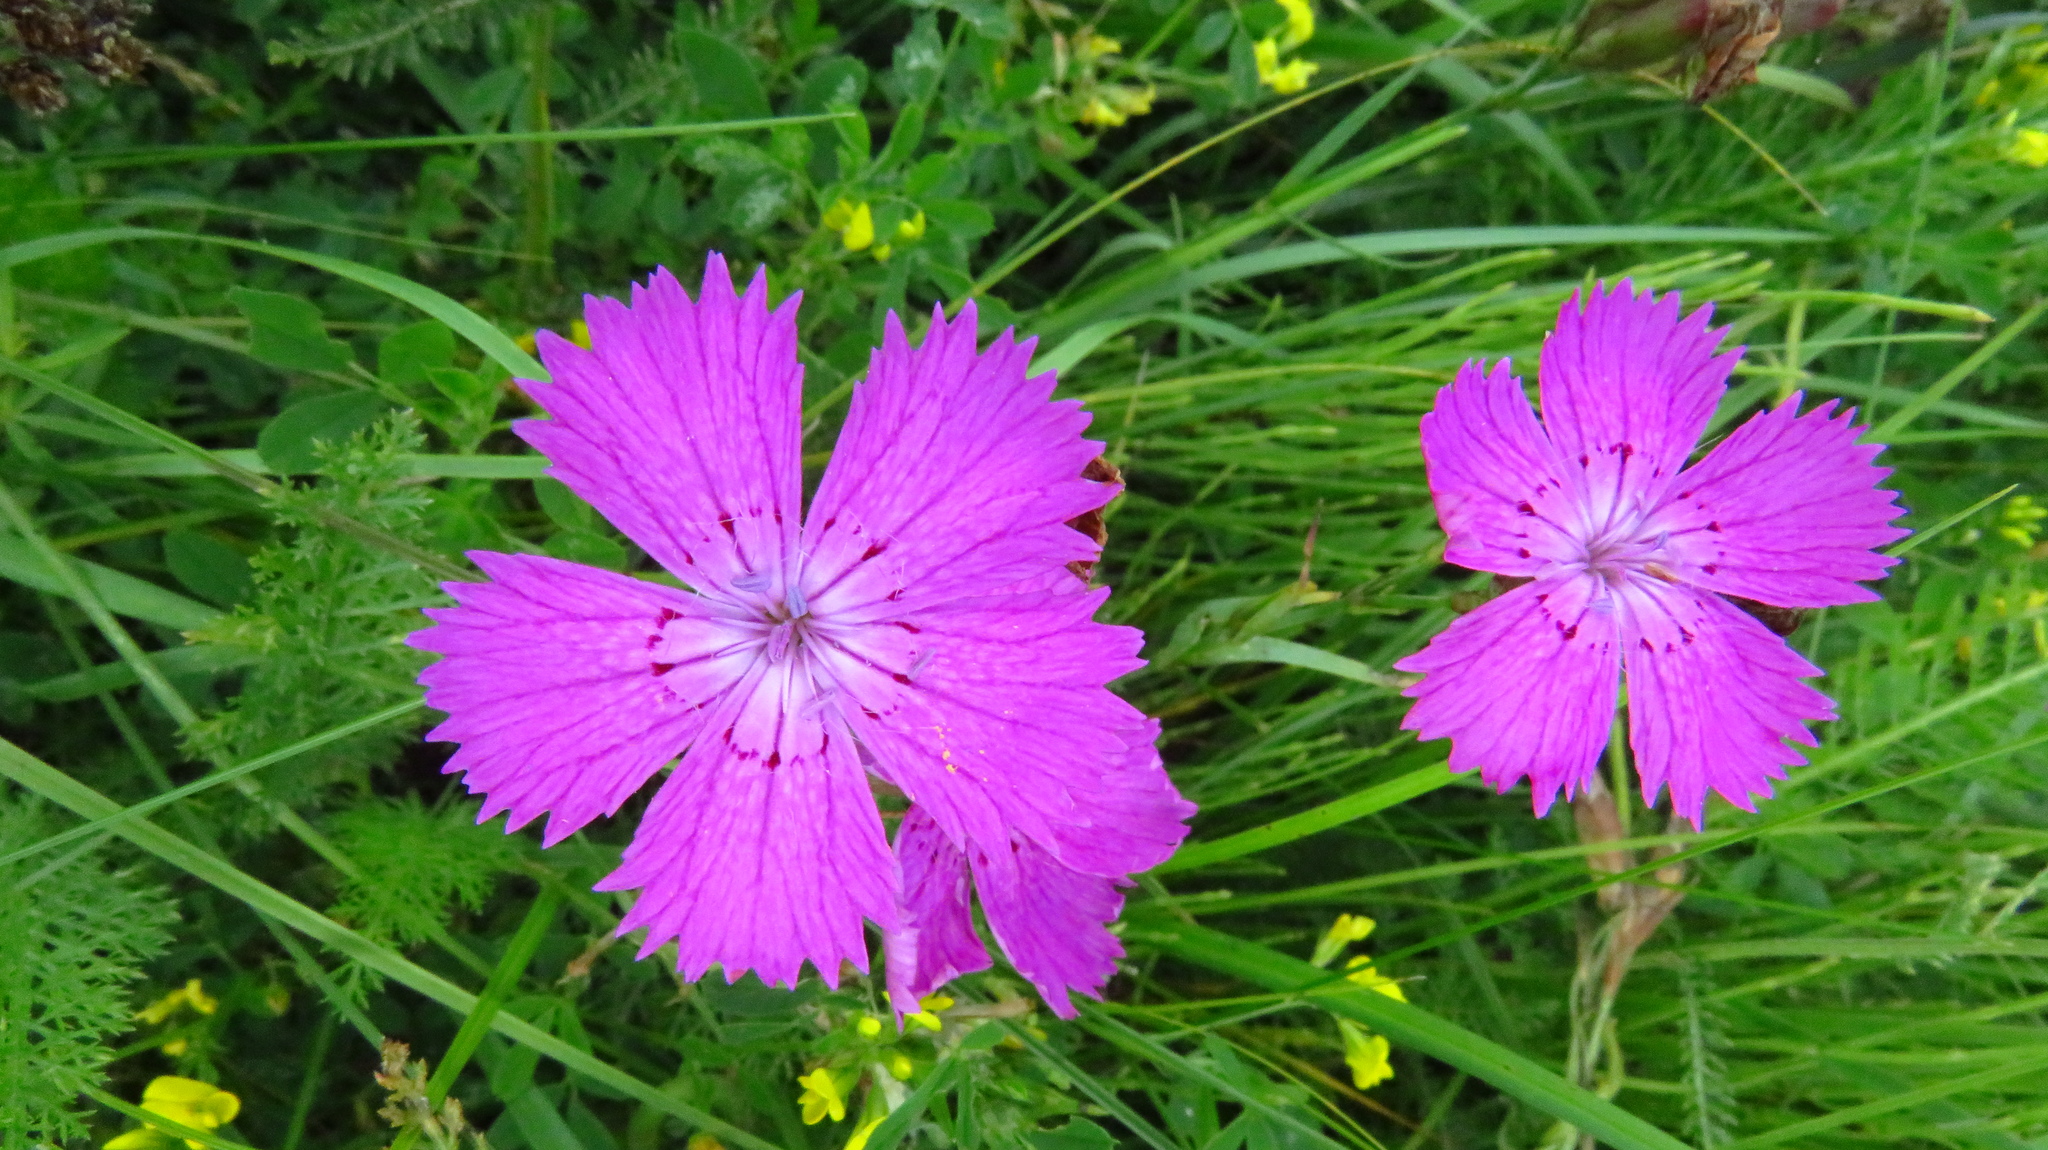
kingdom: Plantae
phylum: Tracheophyta
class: Magnoliopsida
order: Caryophyllales
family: Caryophyllaceae
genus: Dianthus
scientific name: Dianthus chinensis
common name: Rainbow pink
